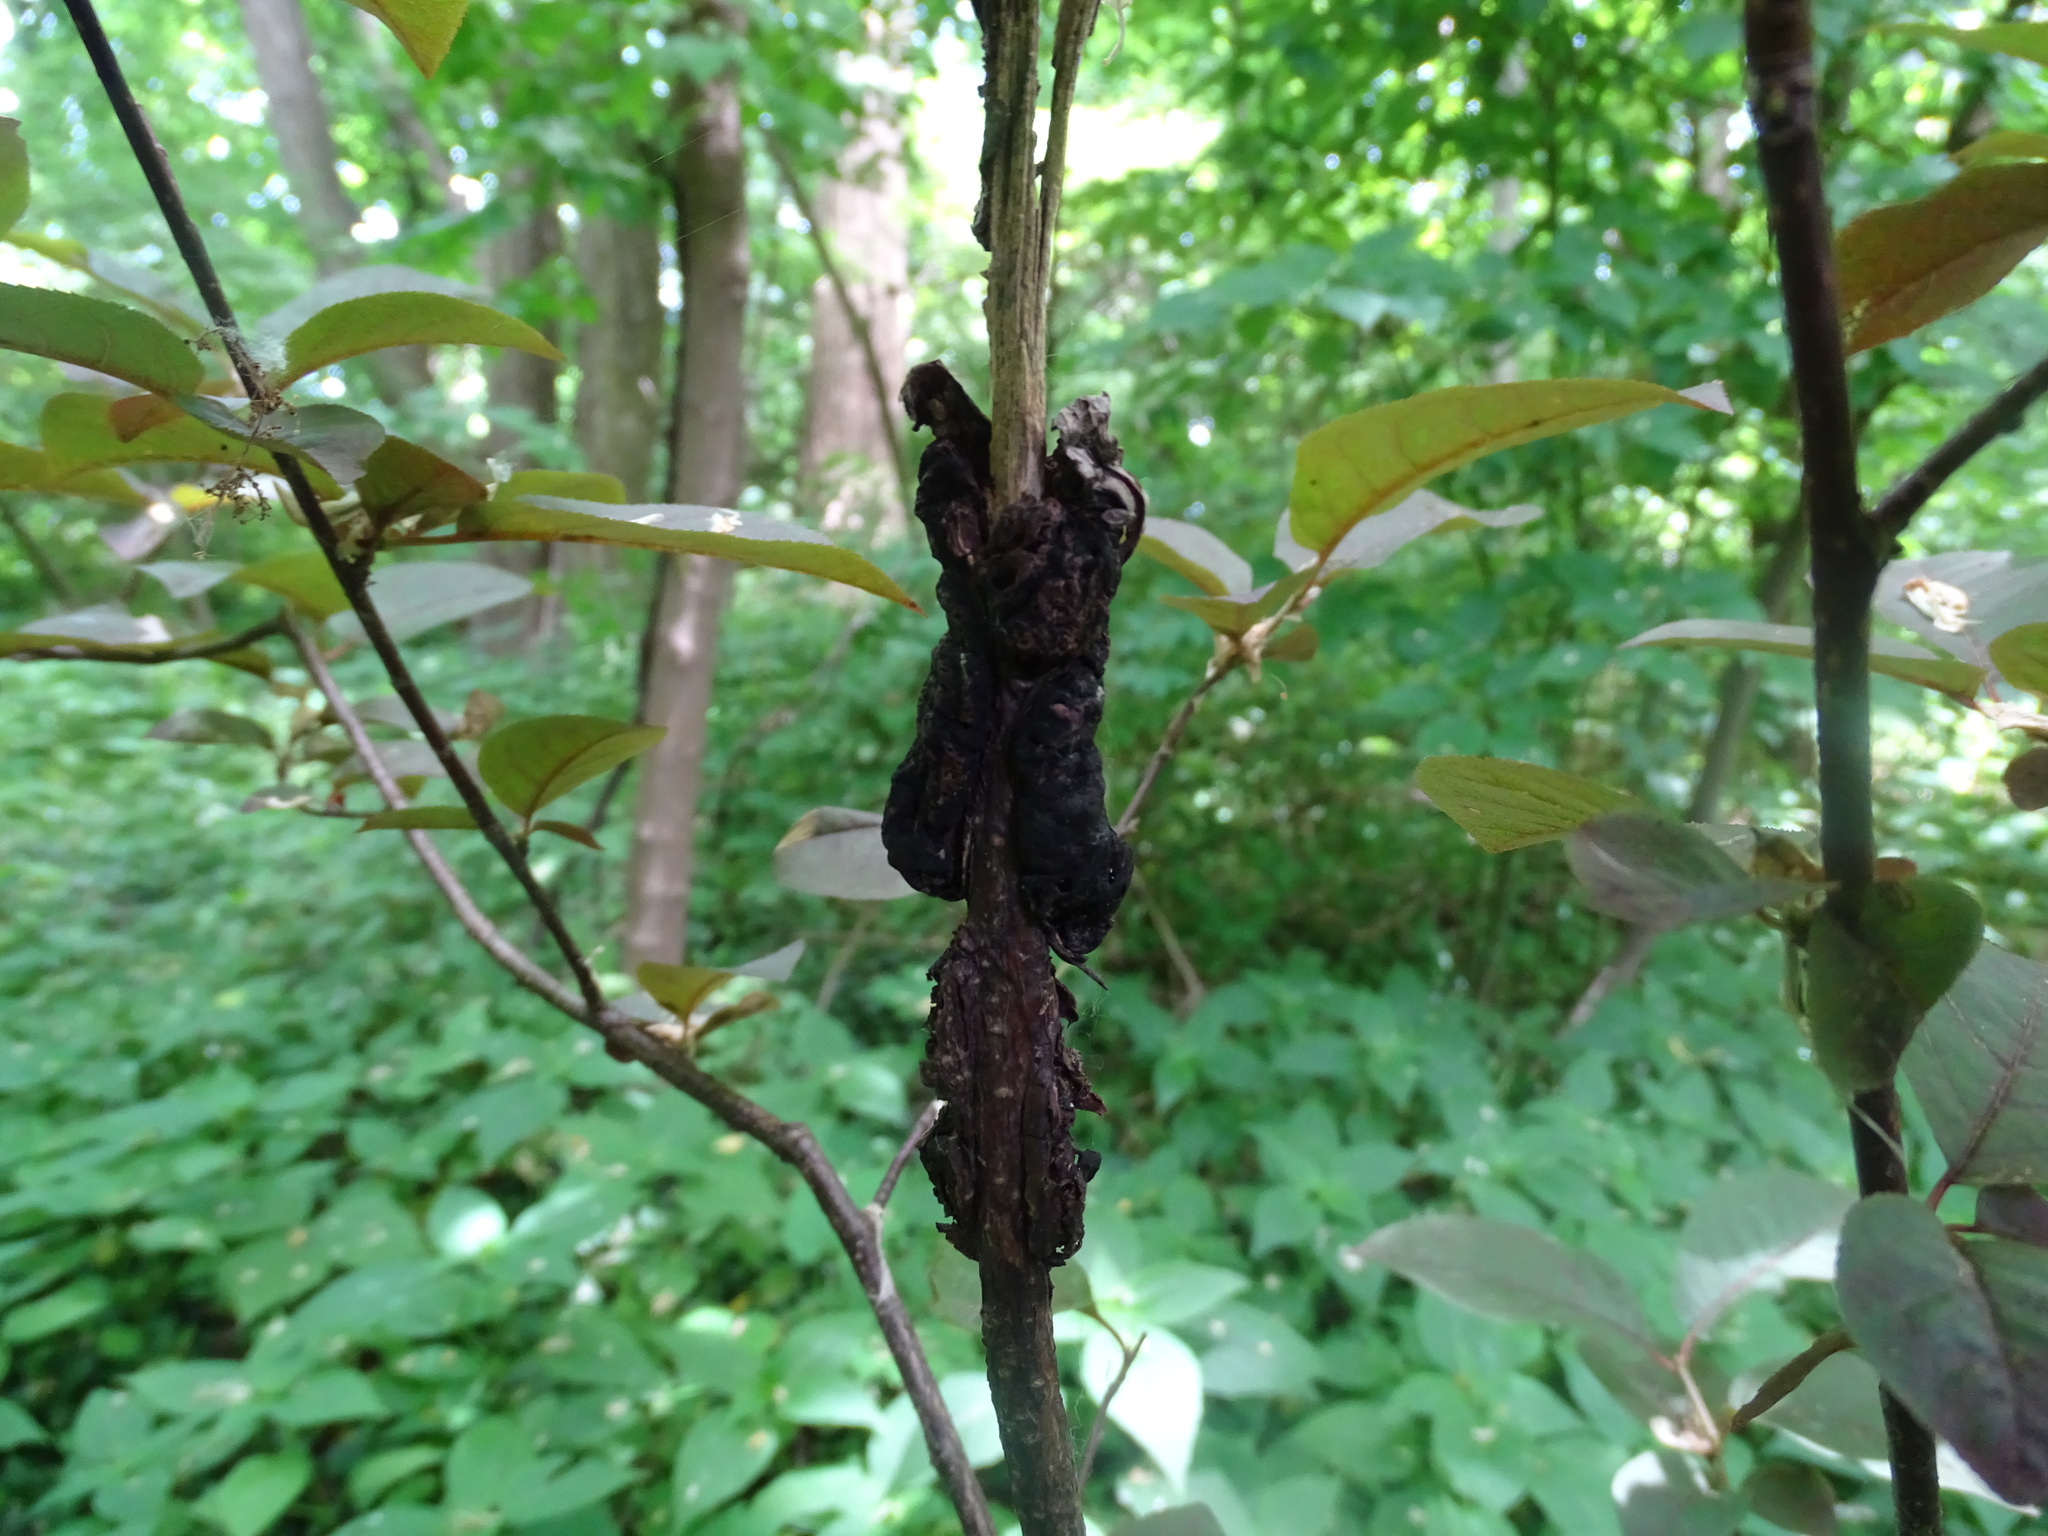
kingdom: Fungi
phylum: Ascomycota
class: Dothideomycetes
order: Venturiales
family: Venturiaceae
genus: Apiosporina
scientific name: Apiosporina morbosa
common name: Black knot
